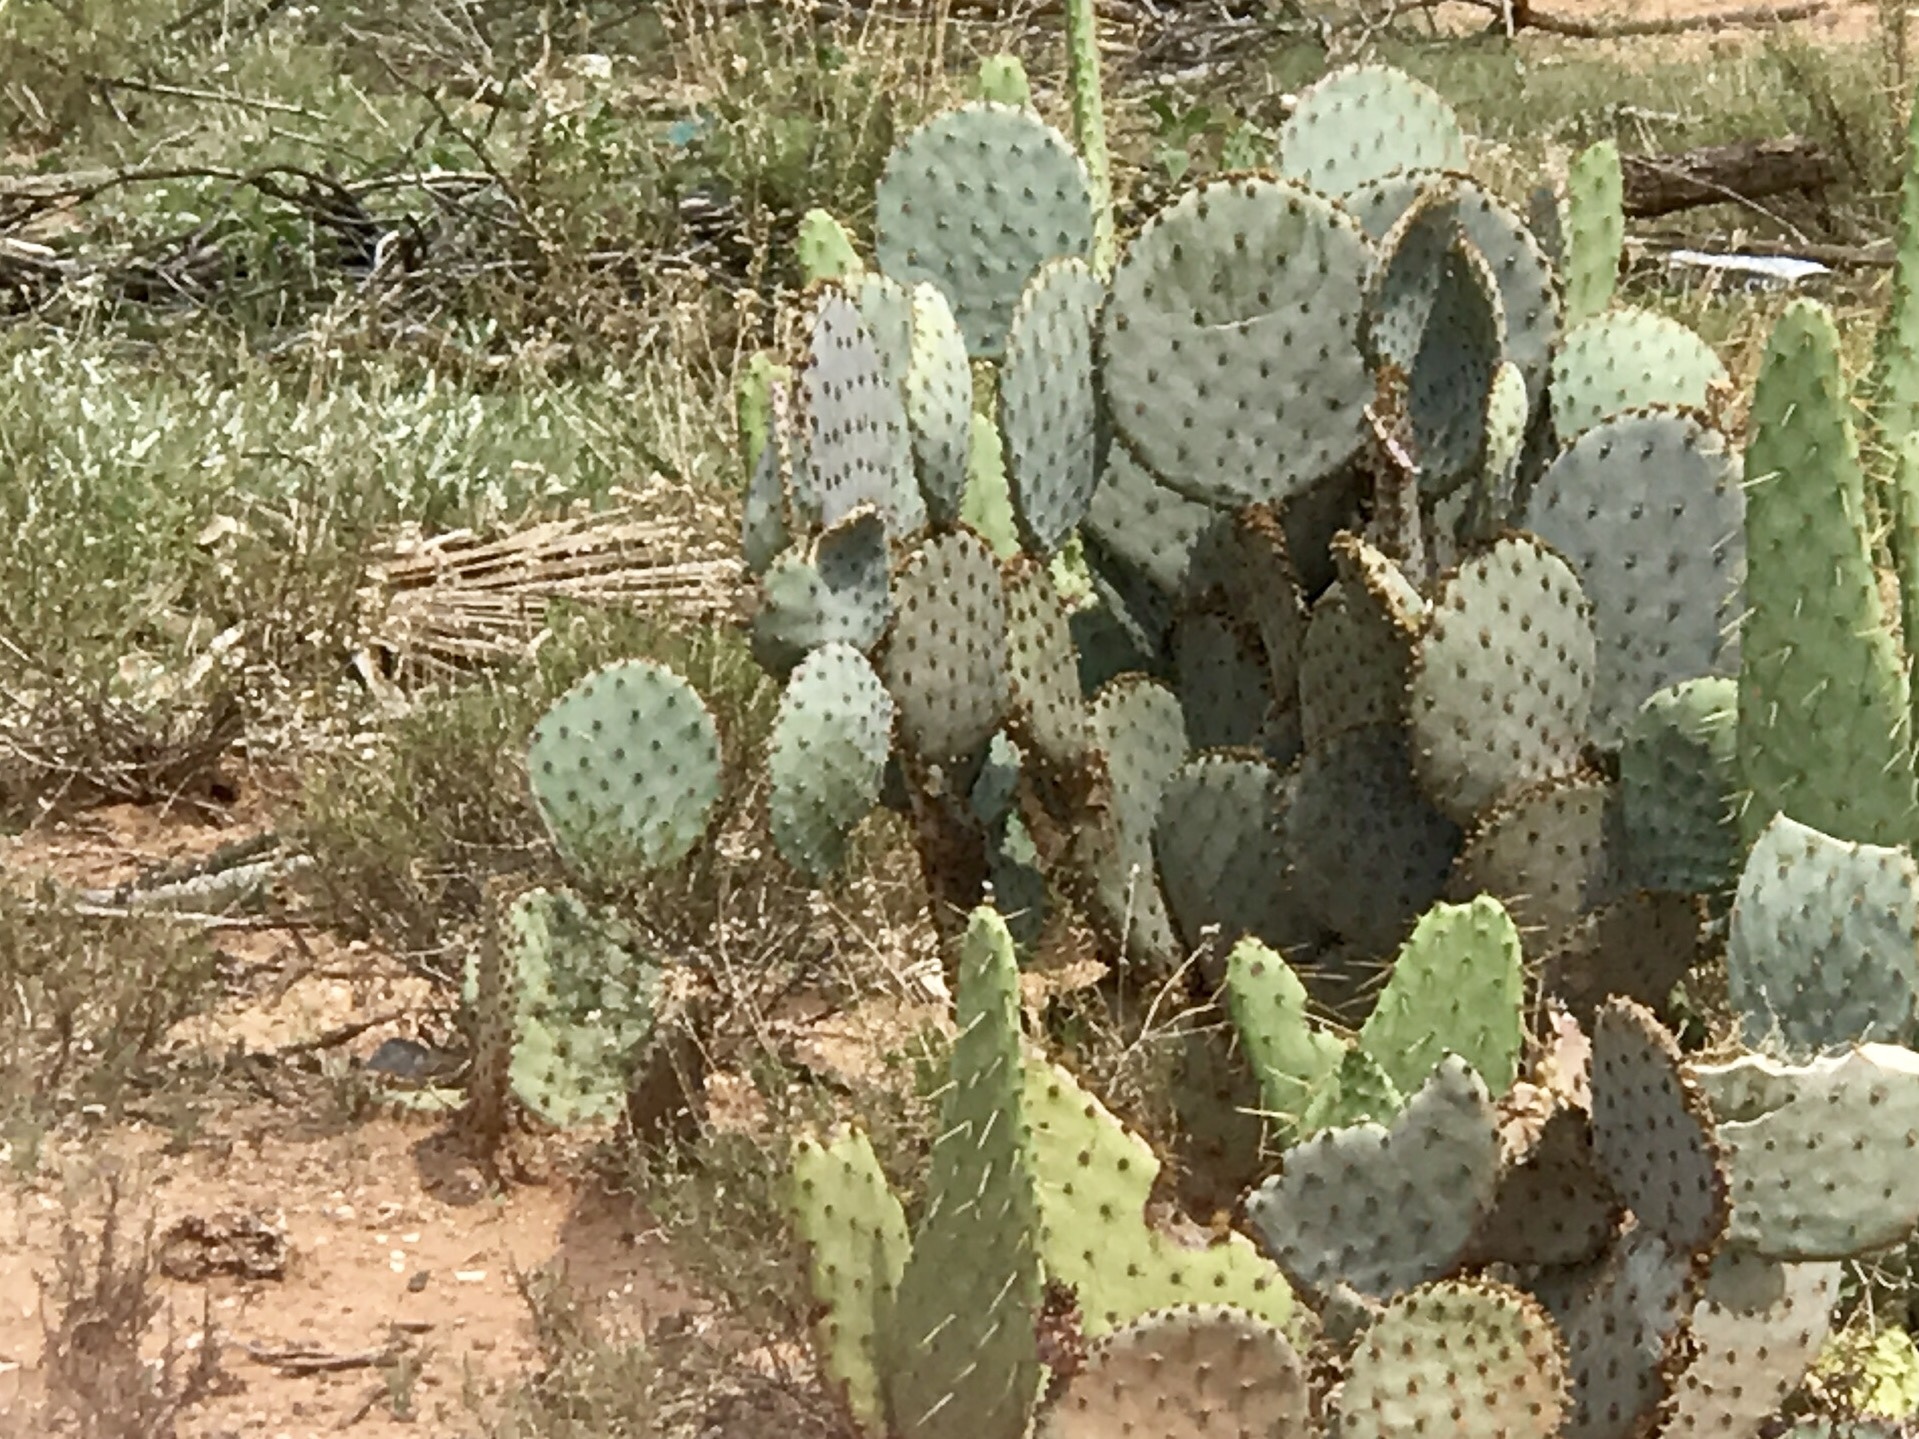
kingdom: Plantae
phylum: Tracheophyta
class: Magnoliopsida
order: Caryophyllales
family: Cactaceae
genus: Opuntia
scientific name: Opuntia gosseliniana
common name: Violet prickly-pear
